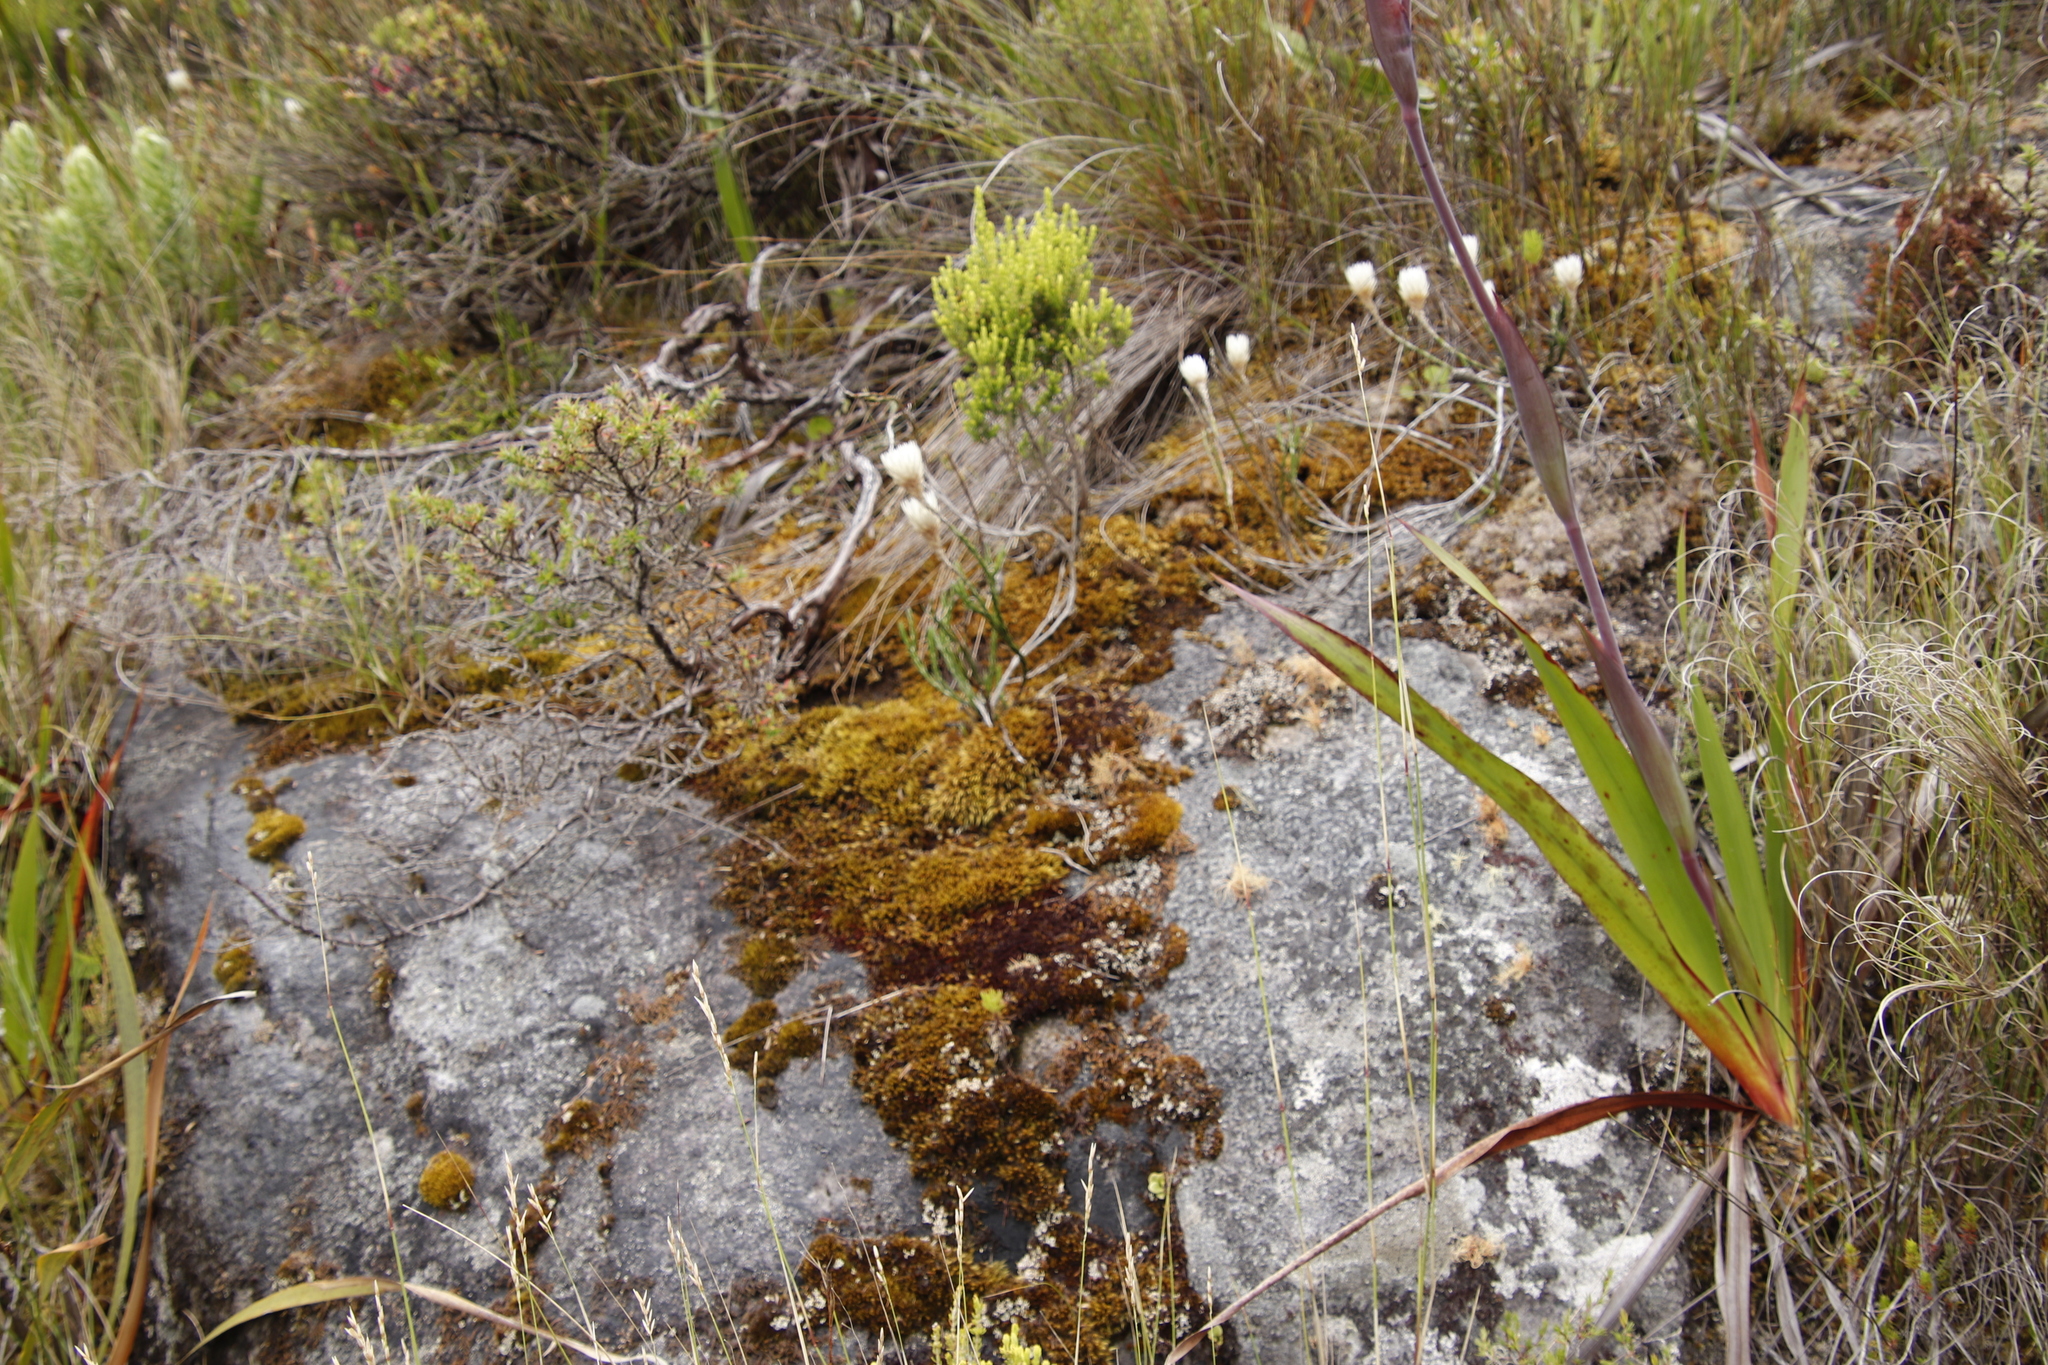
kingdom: Plantae
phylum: Tracheophyta
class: Magnoliopsida
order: Asterales
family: Asteraceae
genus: Edmondia
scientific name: Edmondia pinifolia
